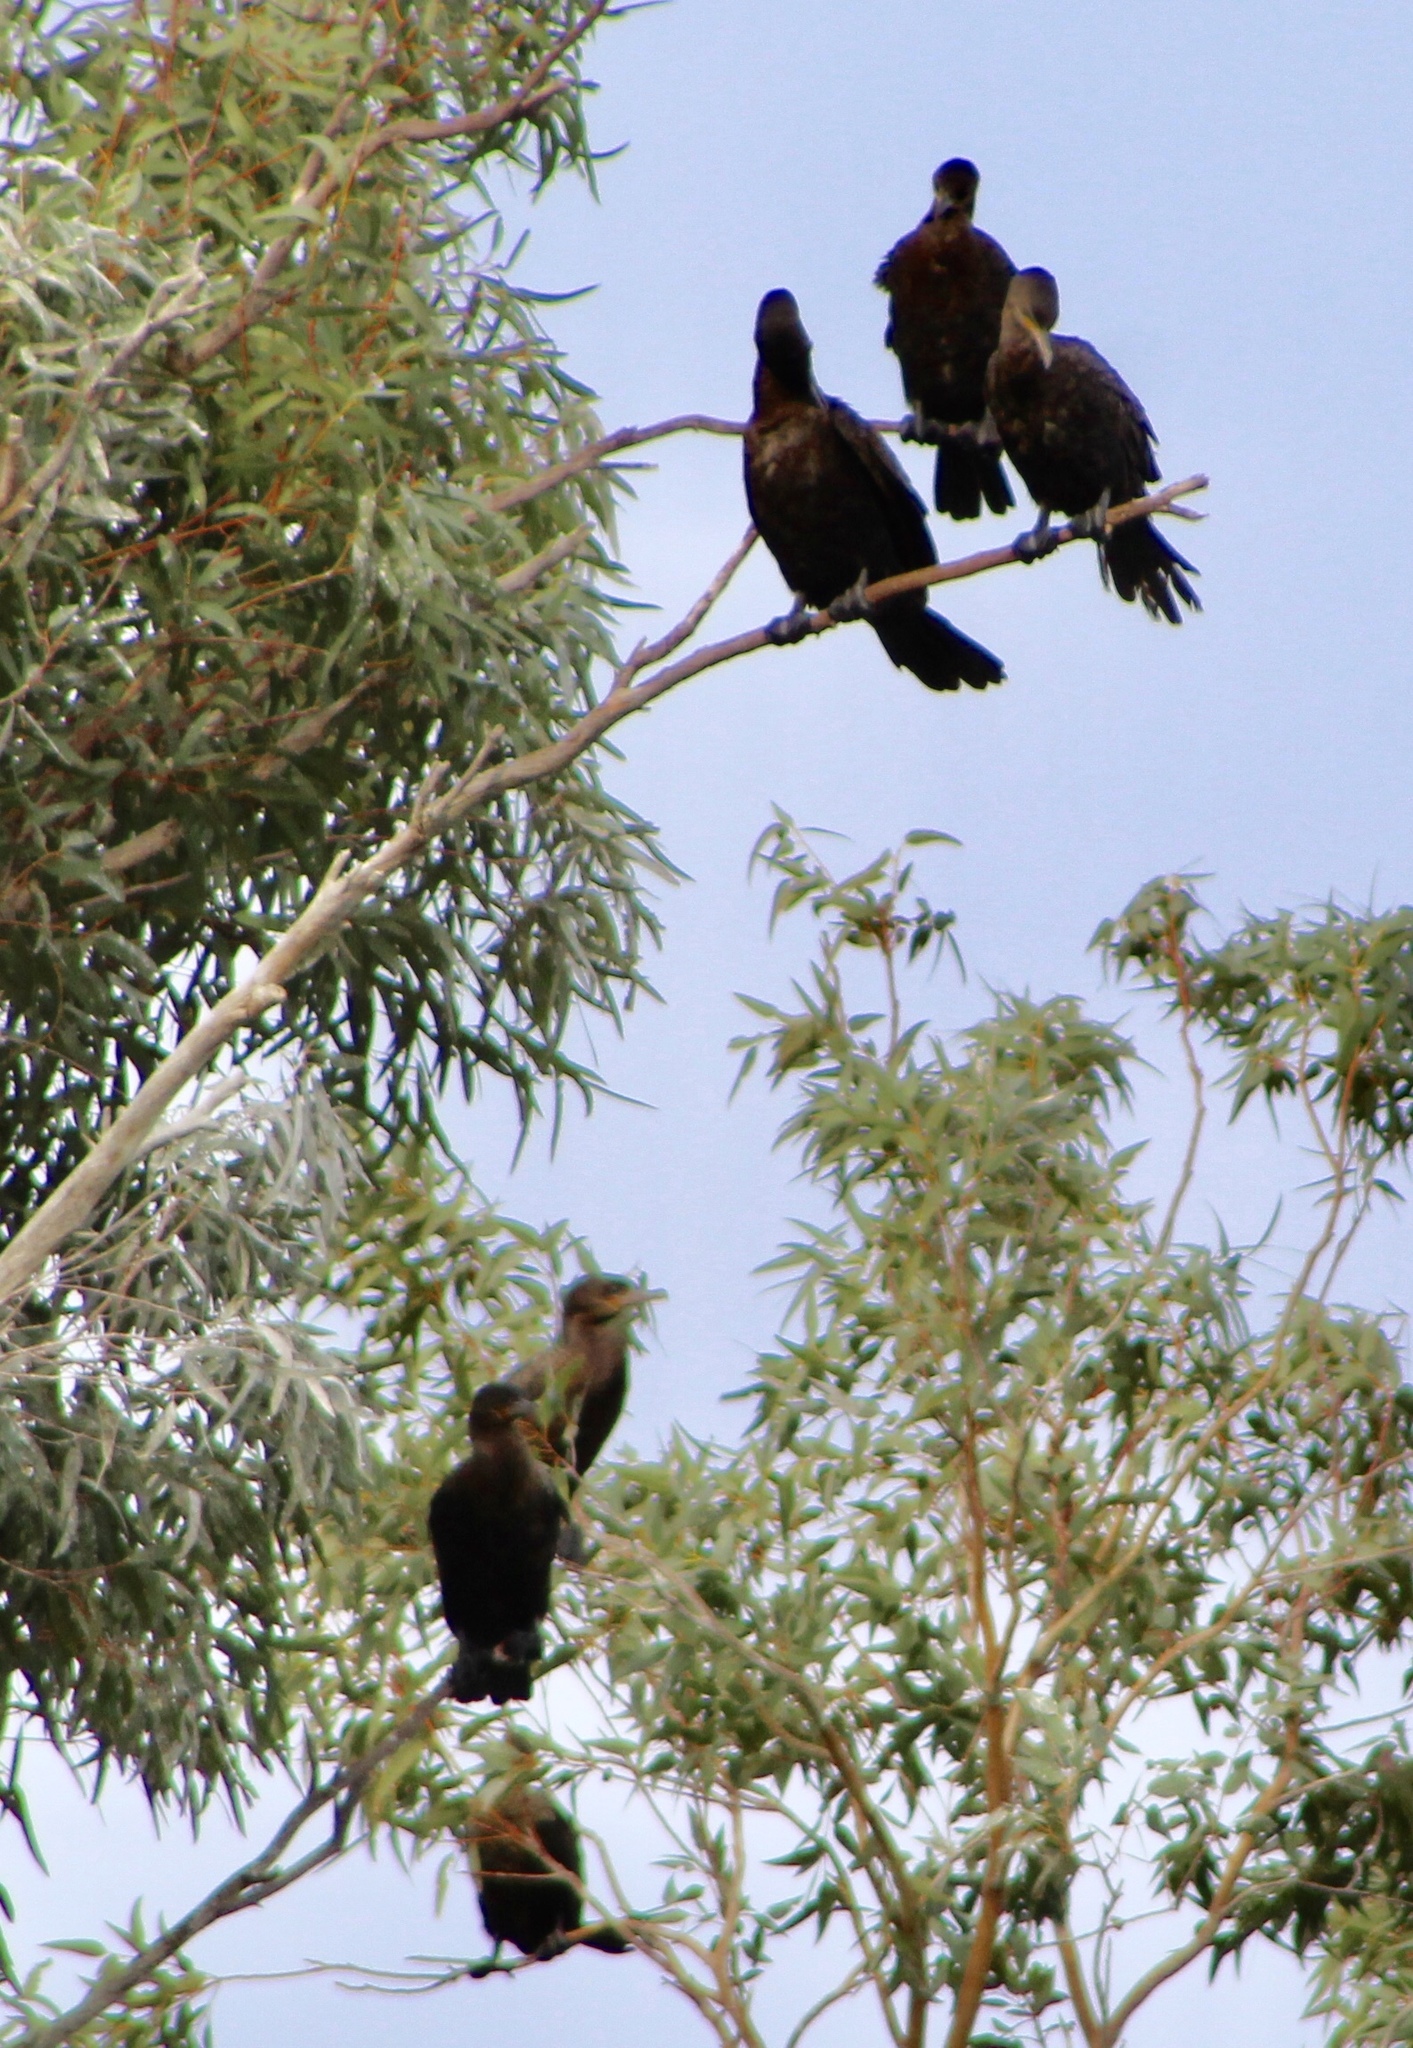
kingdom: Animalia
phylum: Chordata
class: Aves
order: Suliformes
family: Phalacrocoracidae
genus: Phalacrocorax
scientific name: Phalacrocorax brasilianus
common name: Neotropic cormorant
